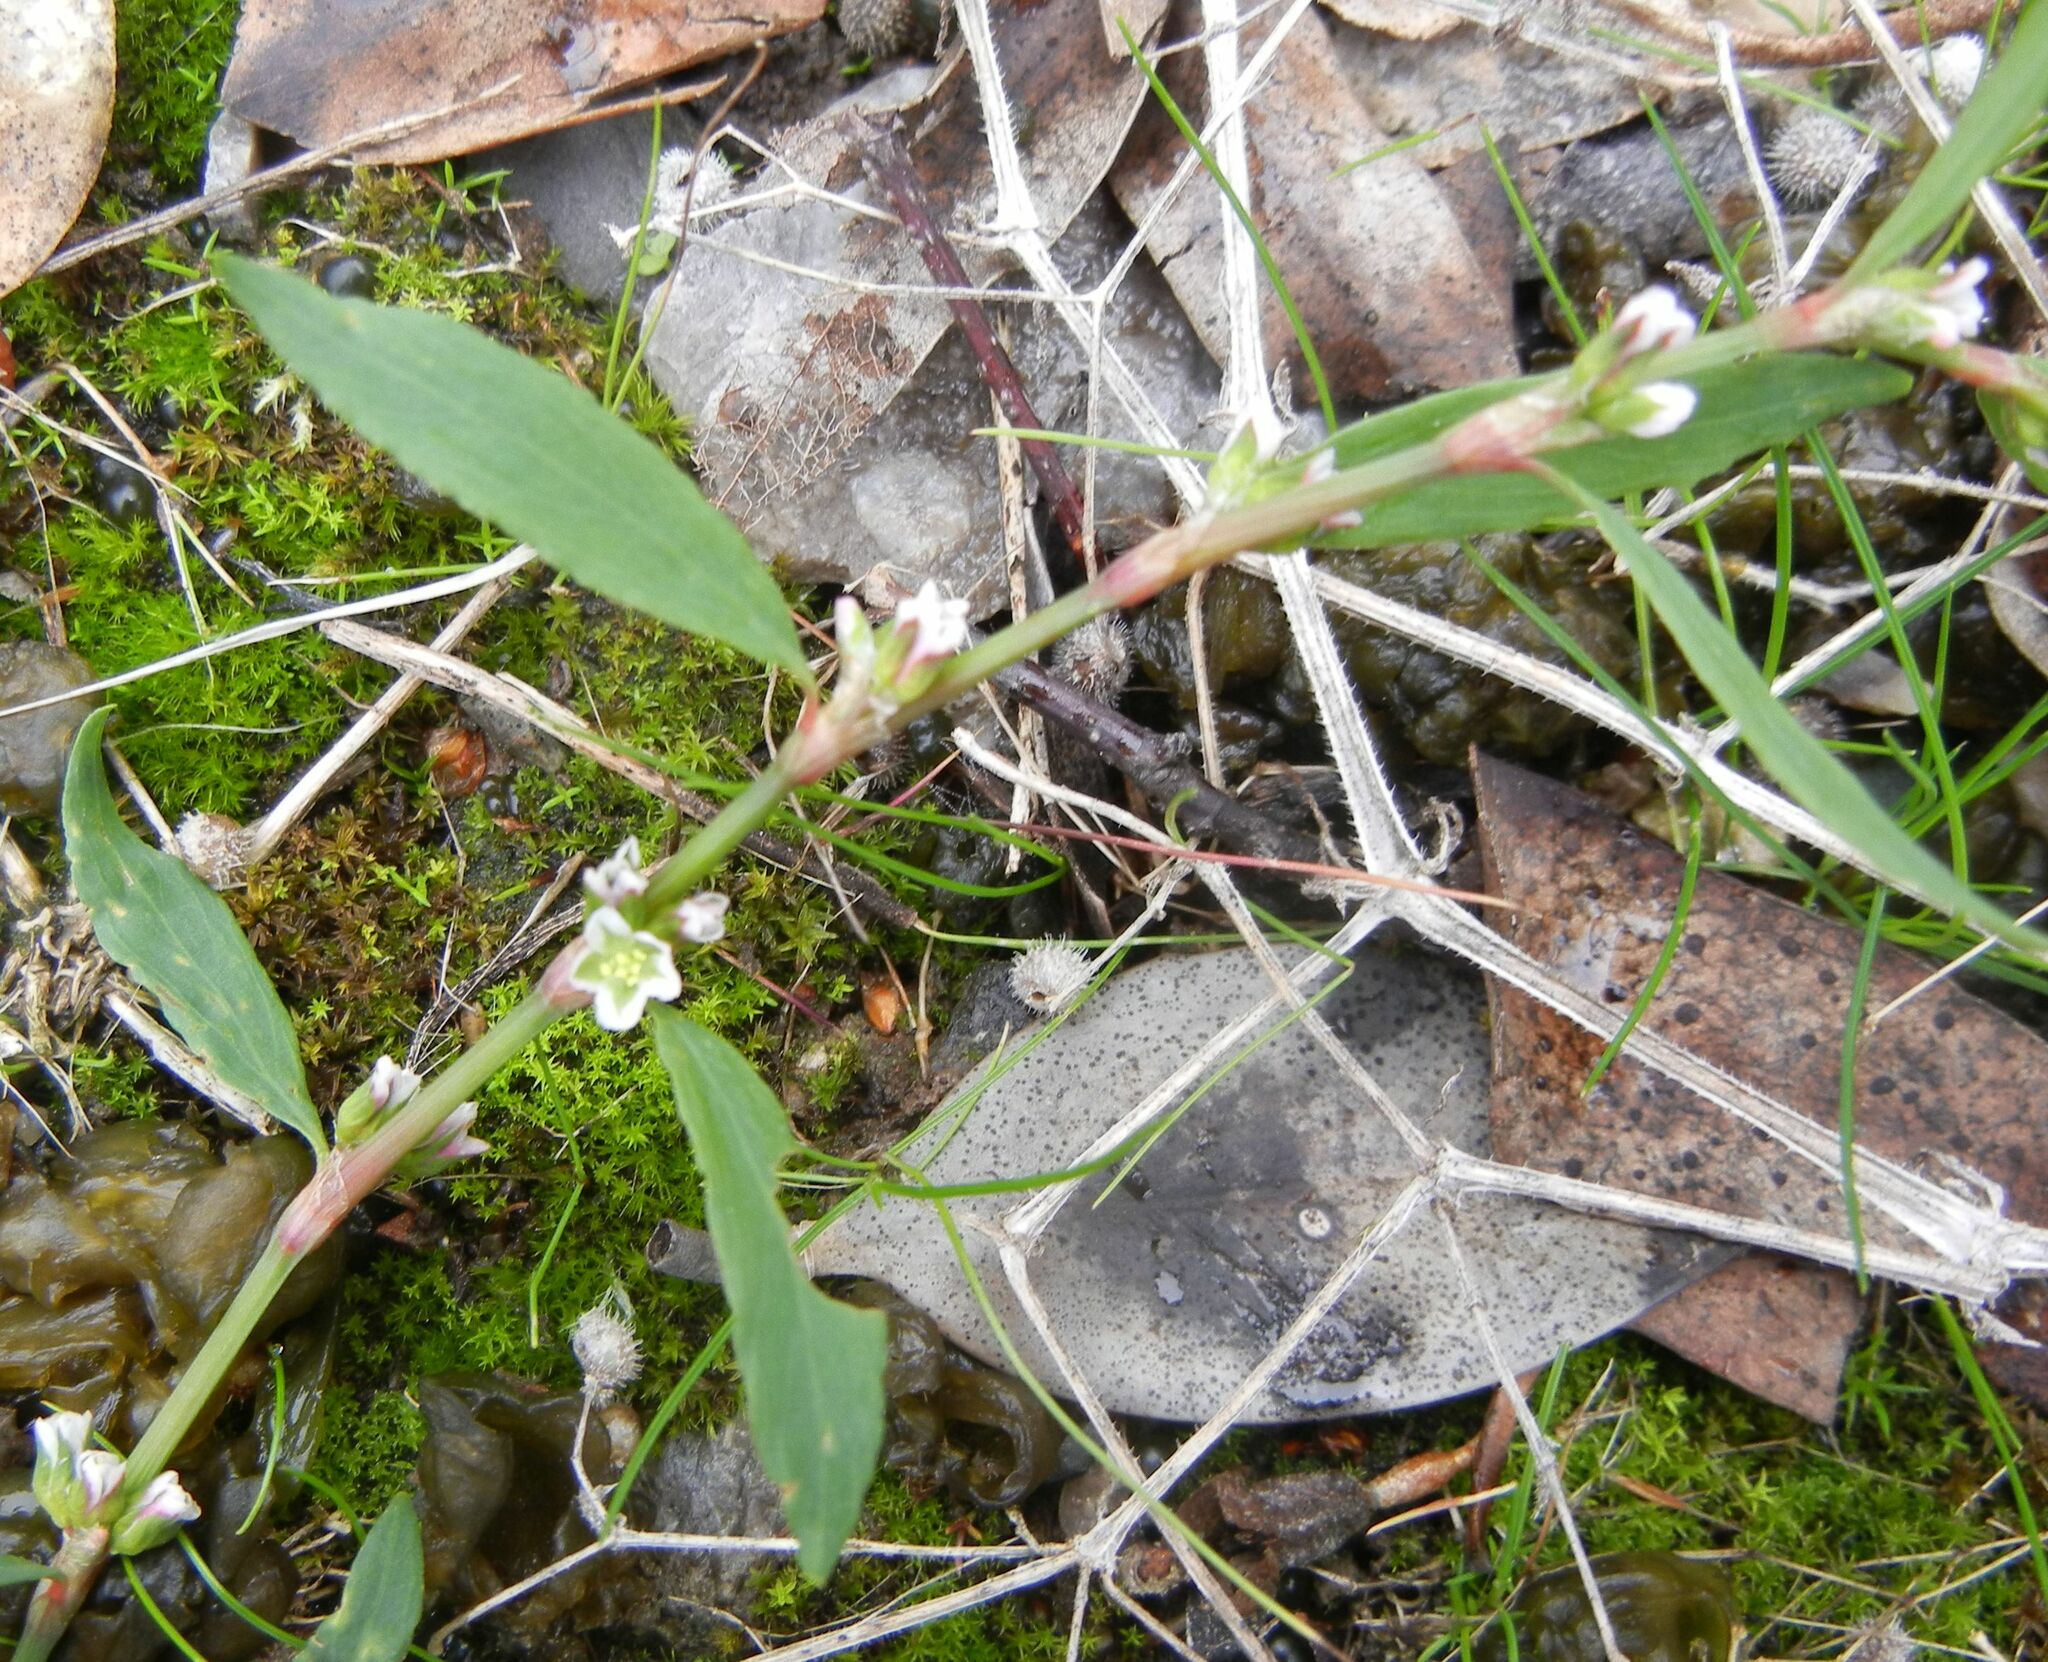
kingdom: Plantae
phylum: Tracheophyta
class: Magnoliopsida
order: Caryophyllales
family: Polygonaceae
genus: Polygonum
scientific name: Polygonum aviculare
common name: Prostrate knotweed
